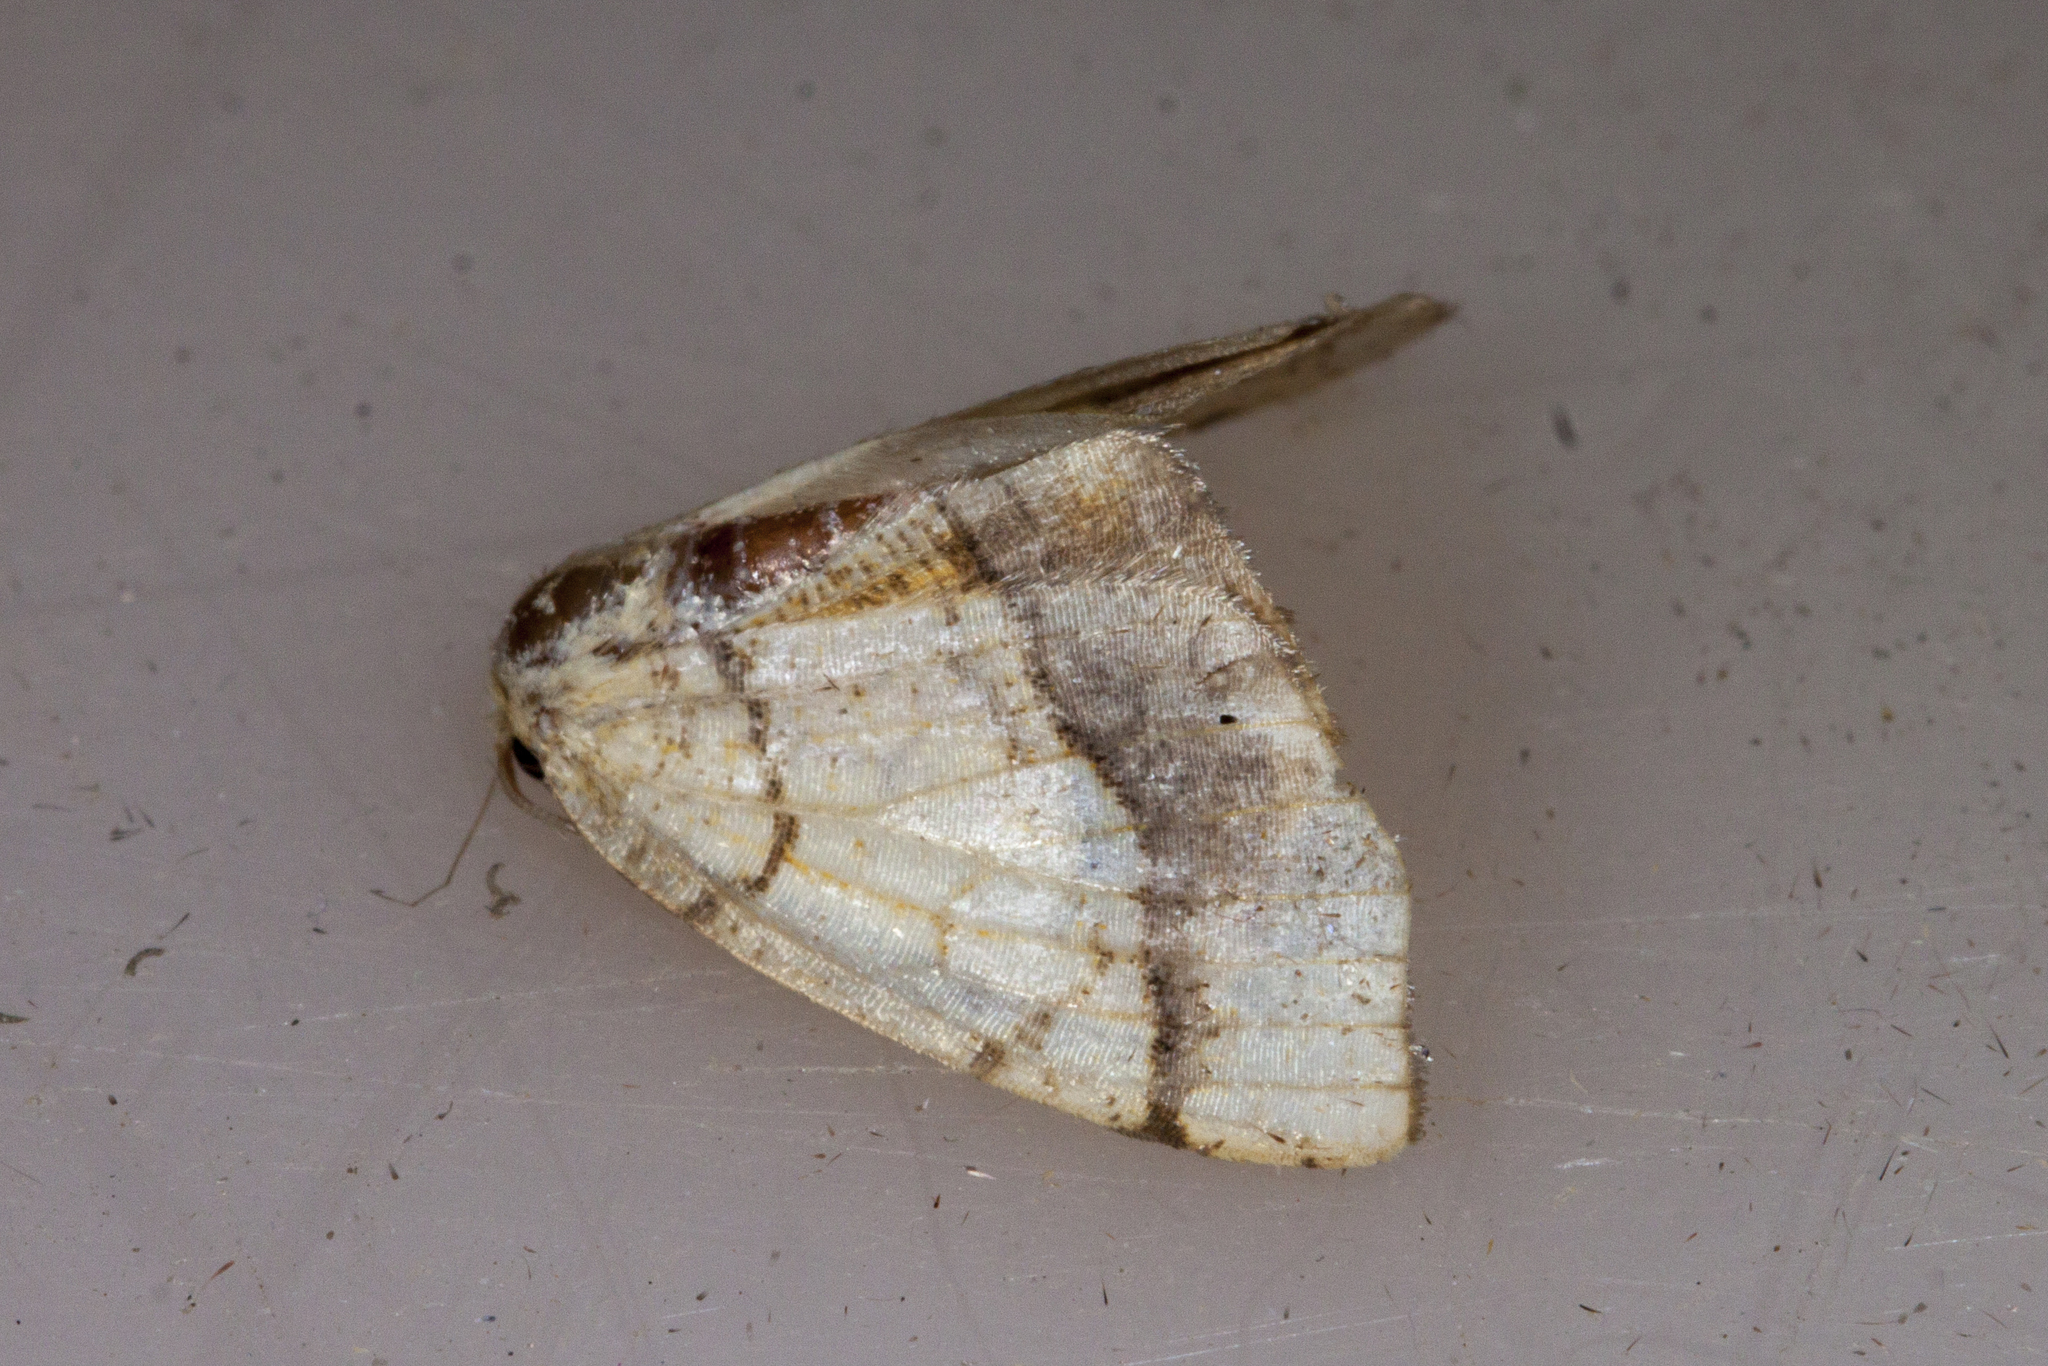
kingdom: Animalia
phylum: Arthropoda
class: Insecta
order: Lepidoptera
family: Geometridae
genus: Nematocampa
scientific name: Nematocampa resistaria
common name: Horned spanworm moth
